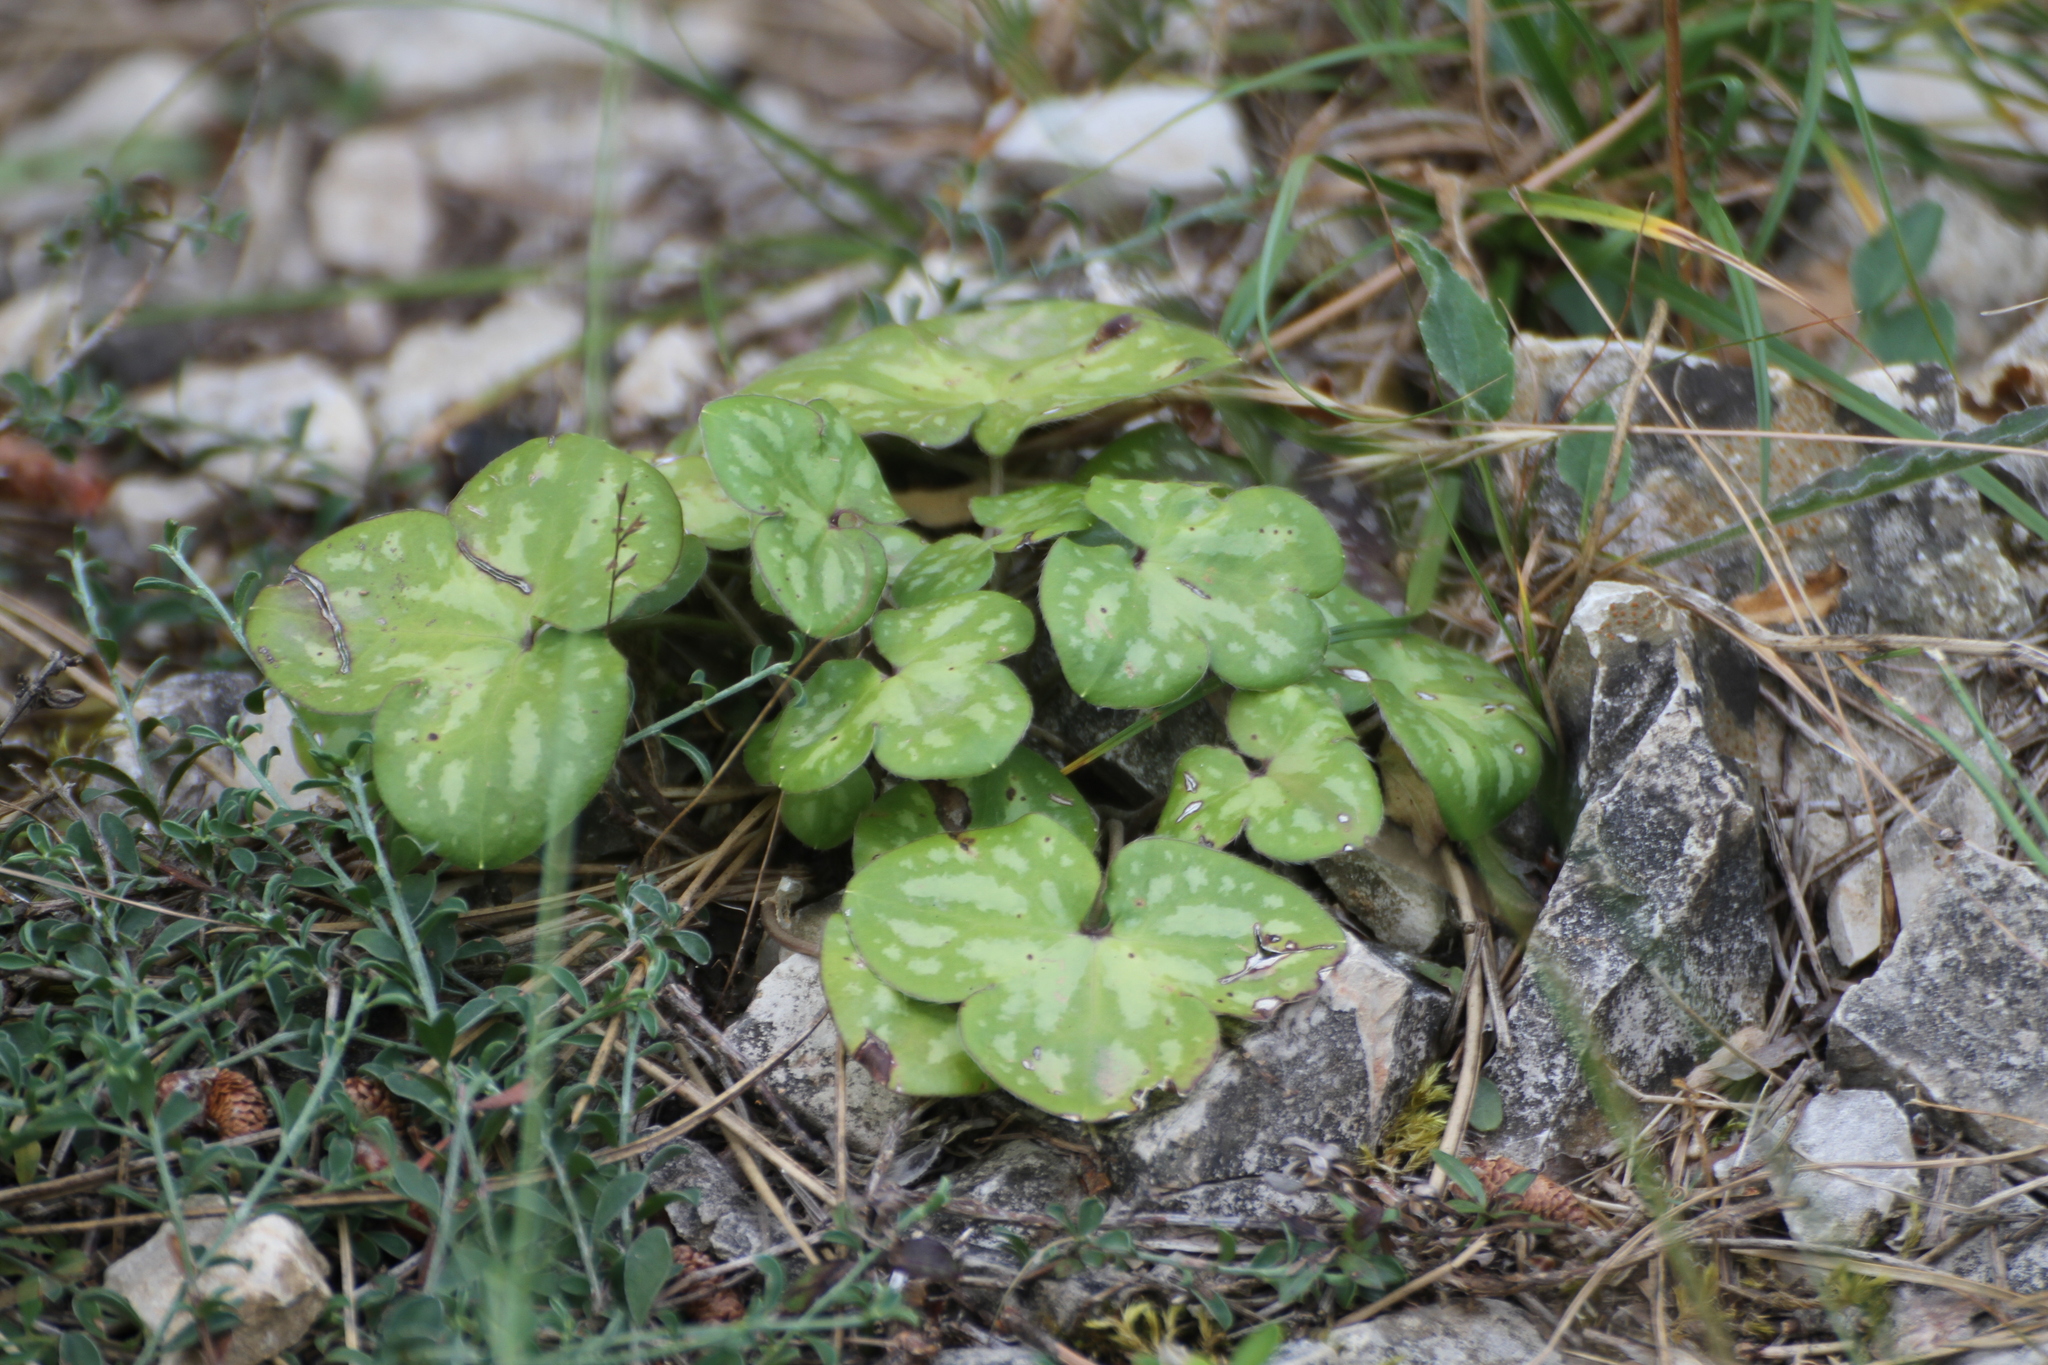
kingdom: Plantae
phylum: Tracheophyta
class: Magnoliopsida
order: Ranunculales
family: Ranunculaceae
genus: Hepatica
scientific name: Hepatica nobilis
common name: Liverleaf
